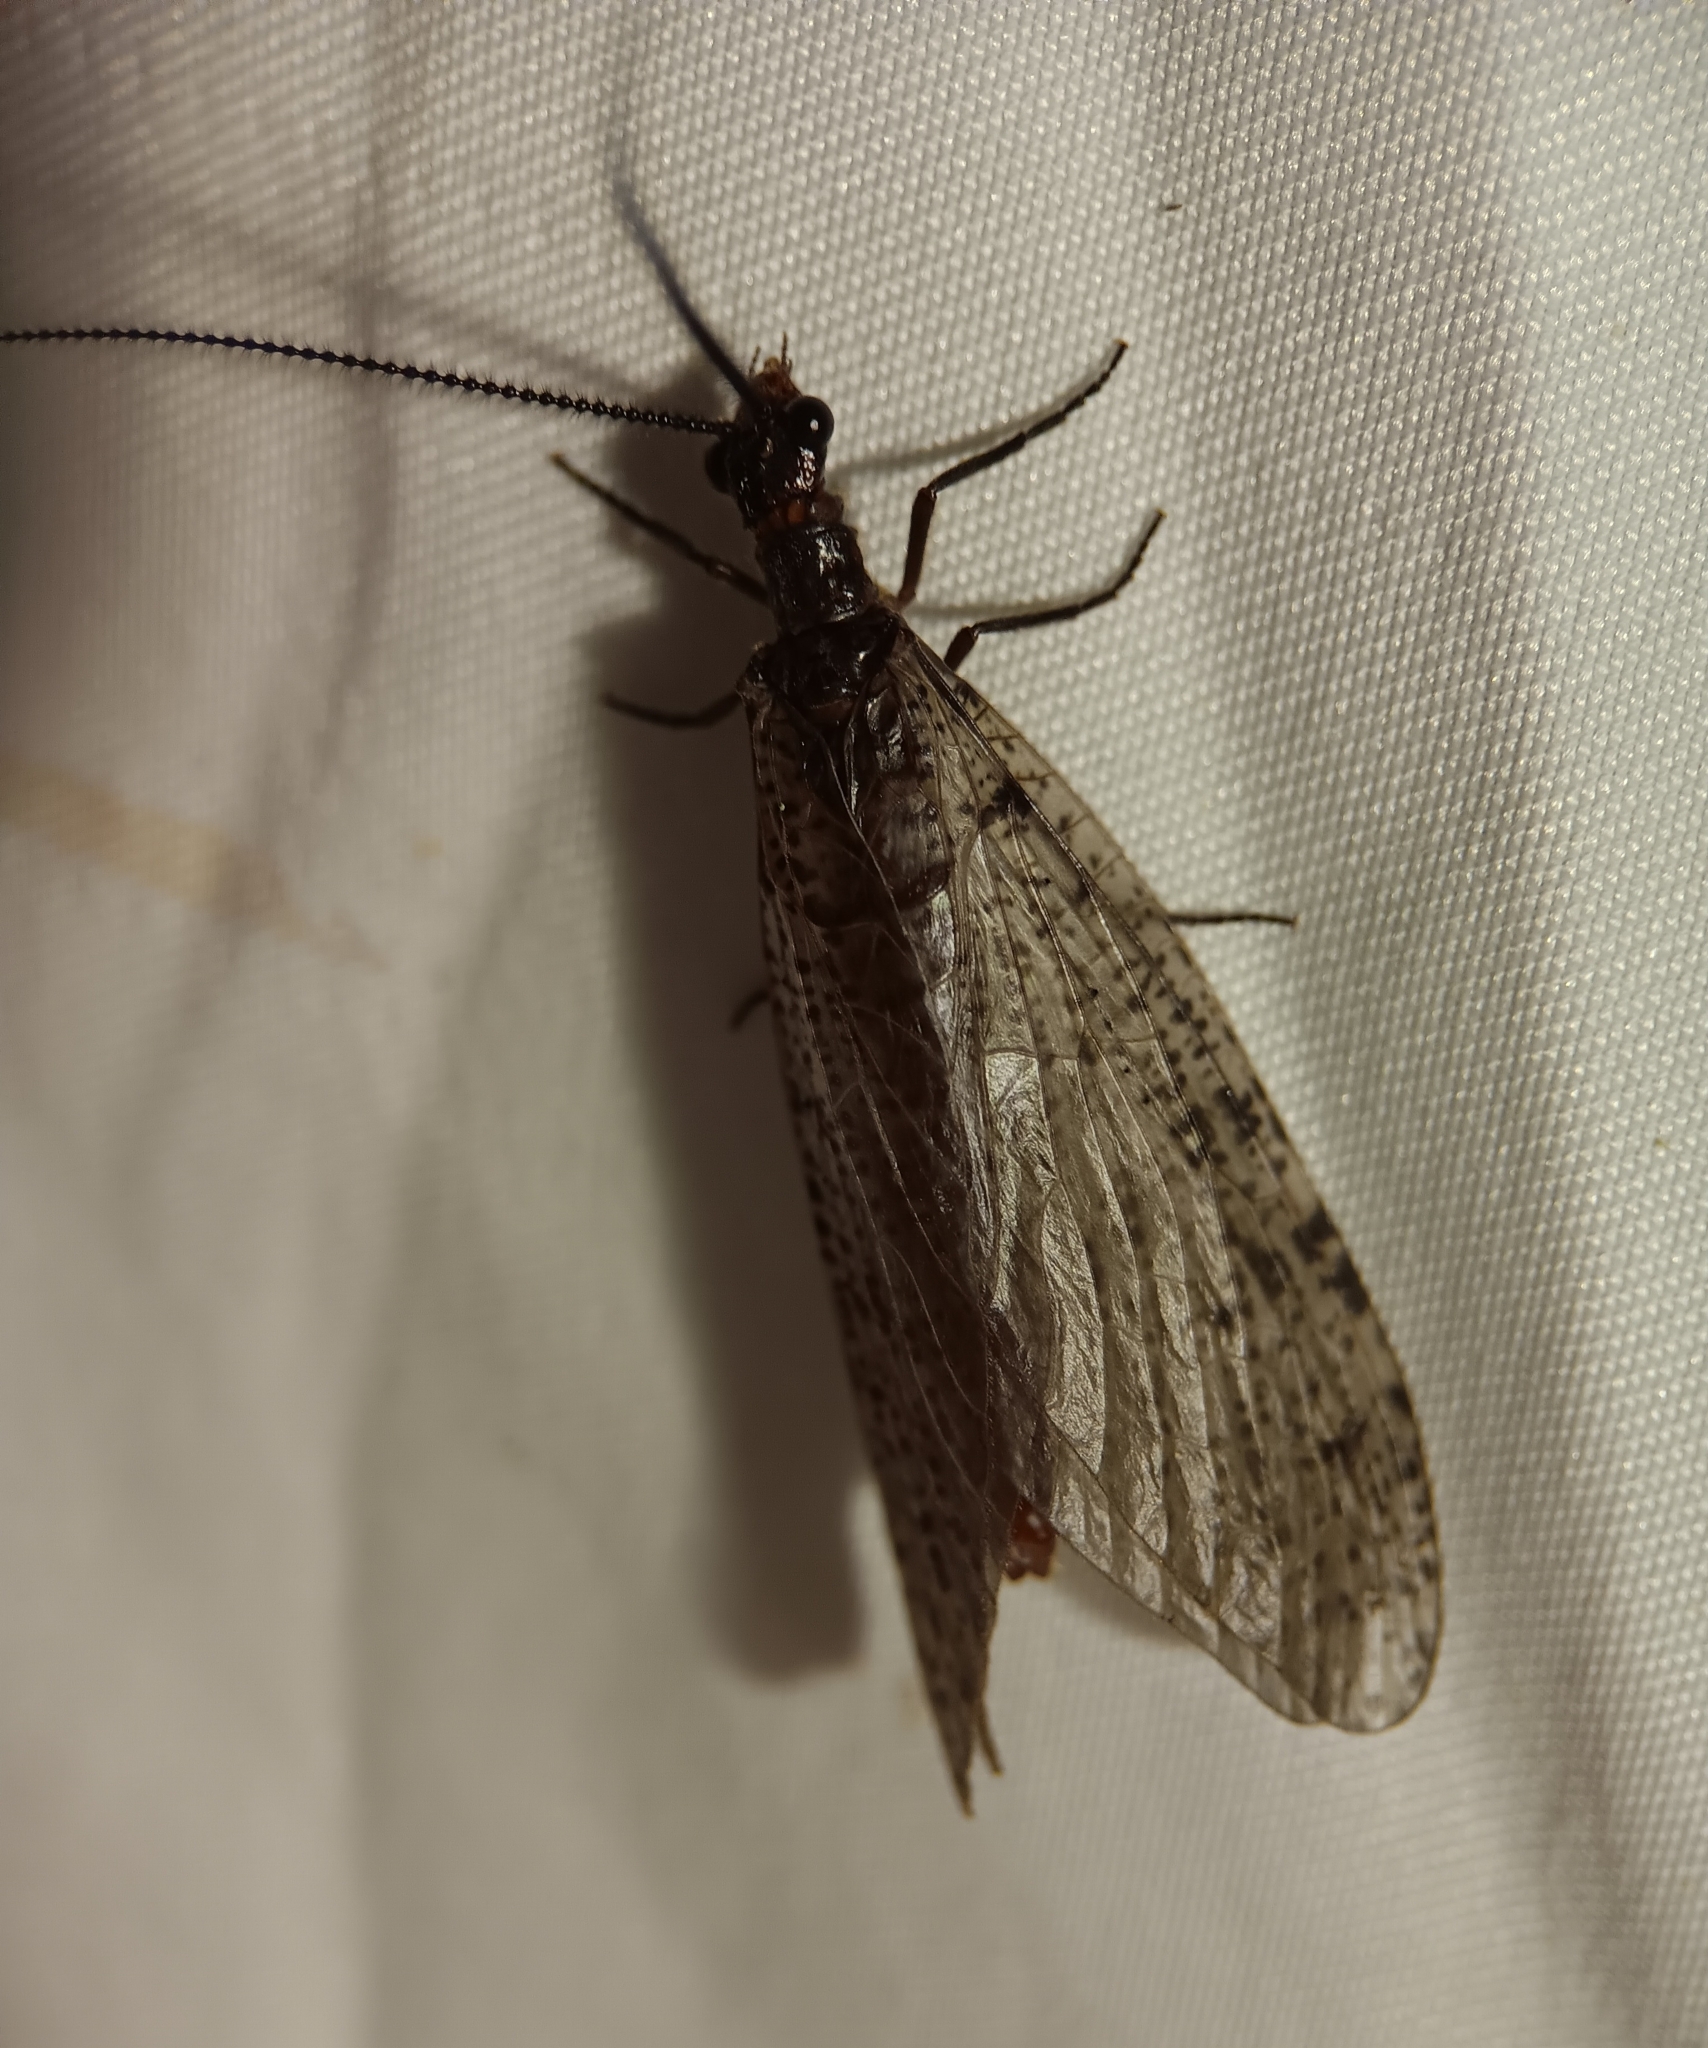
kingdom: Animalia
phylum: Arthropoda
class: Insecta
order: Megaloptera
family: Corydalidae
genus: Neohermes
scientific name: Neohermes concolor
